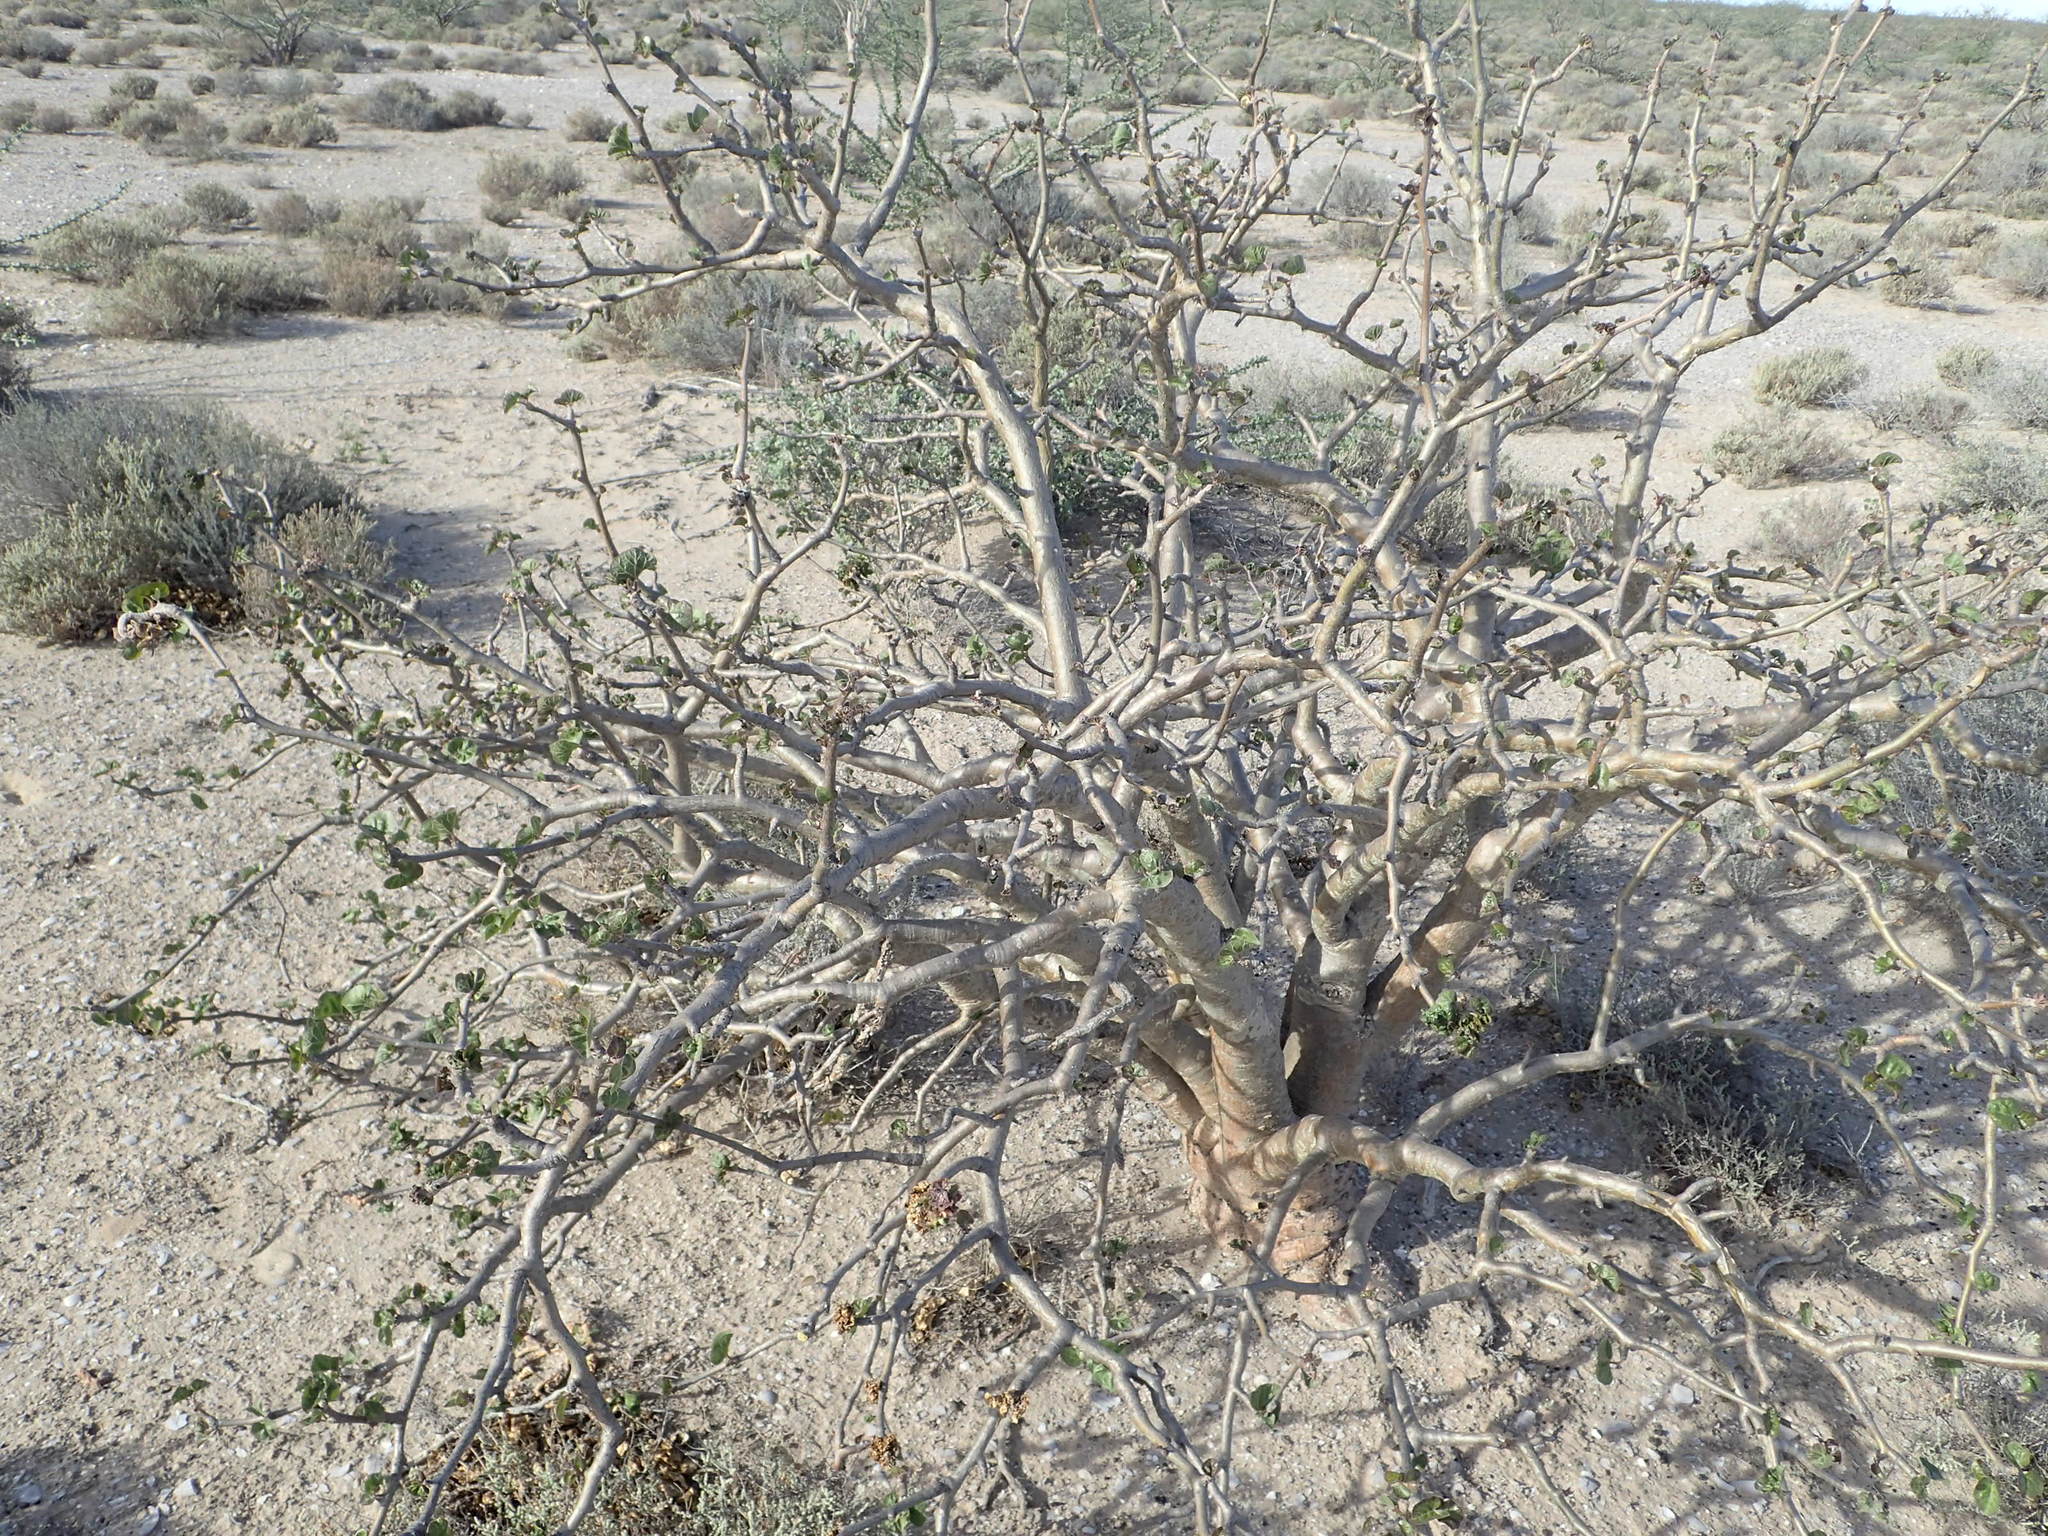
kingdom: Plantae
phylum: Tracheophyta
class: Magnoliopsida
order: Malpighiales
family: Euphorbiaceae
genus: Jatropha
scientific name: Jatropha cinerea
